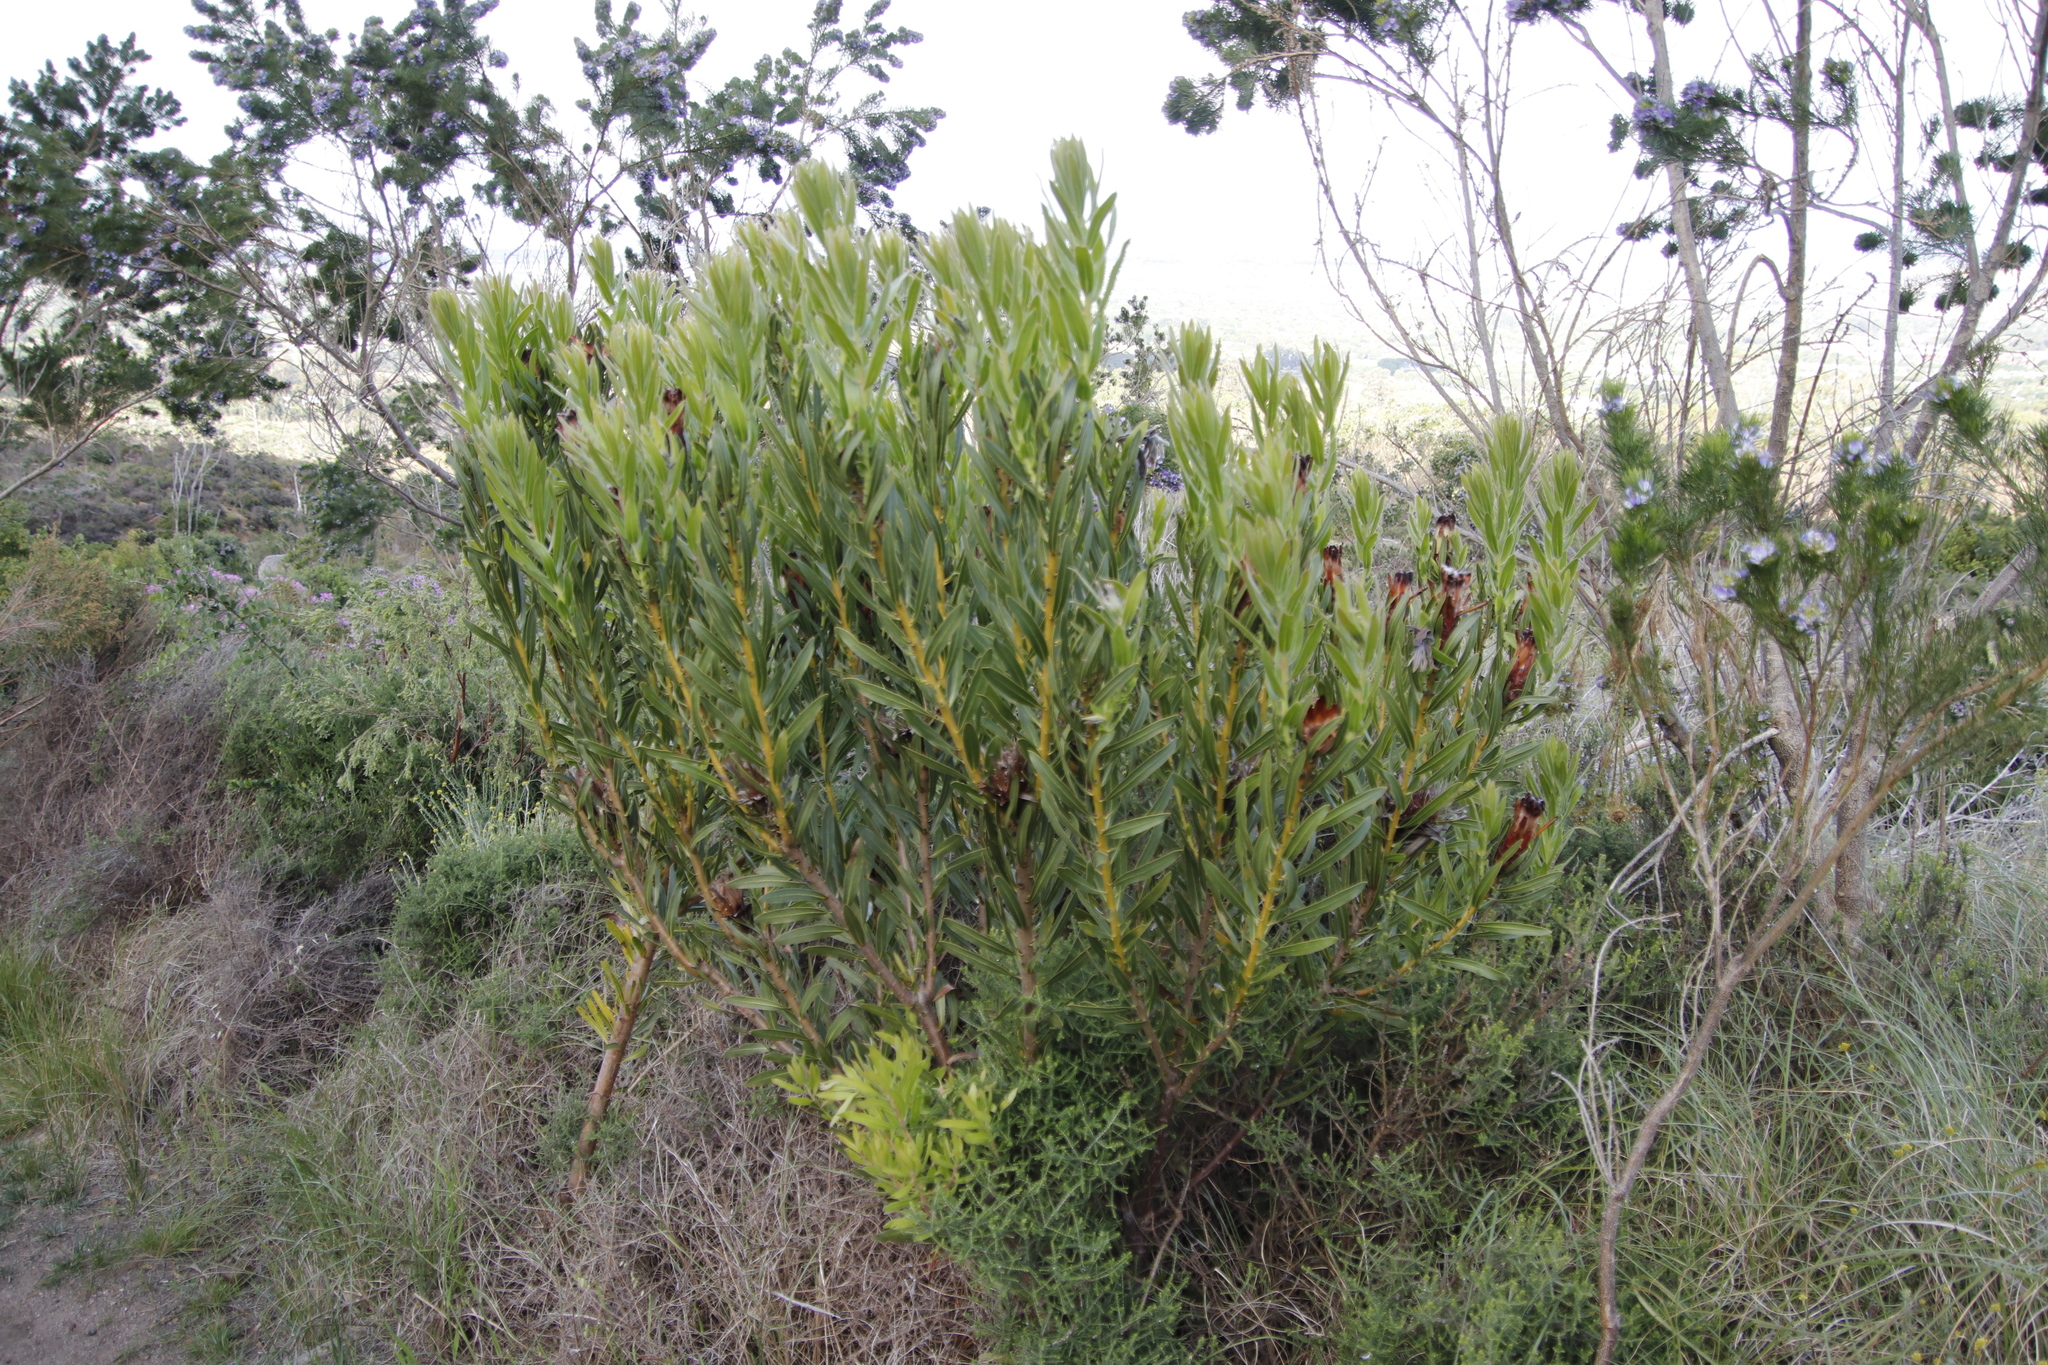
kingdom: Plantae
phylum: Tracheophyta
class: Magnoliopsida
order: Proteales
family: Proteaceae
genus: Protea
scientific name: Protea lepidocarpodendron
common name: Black-bearded protea
